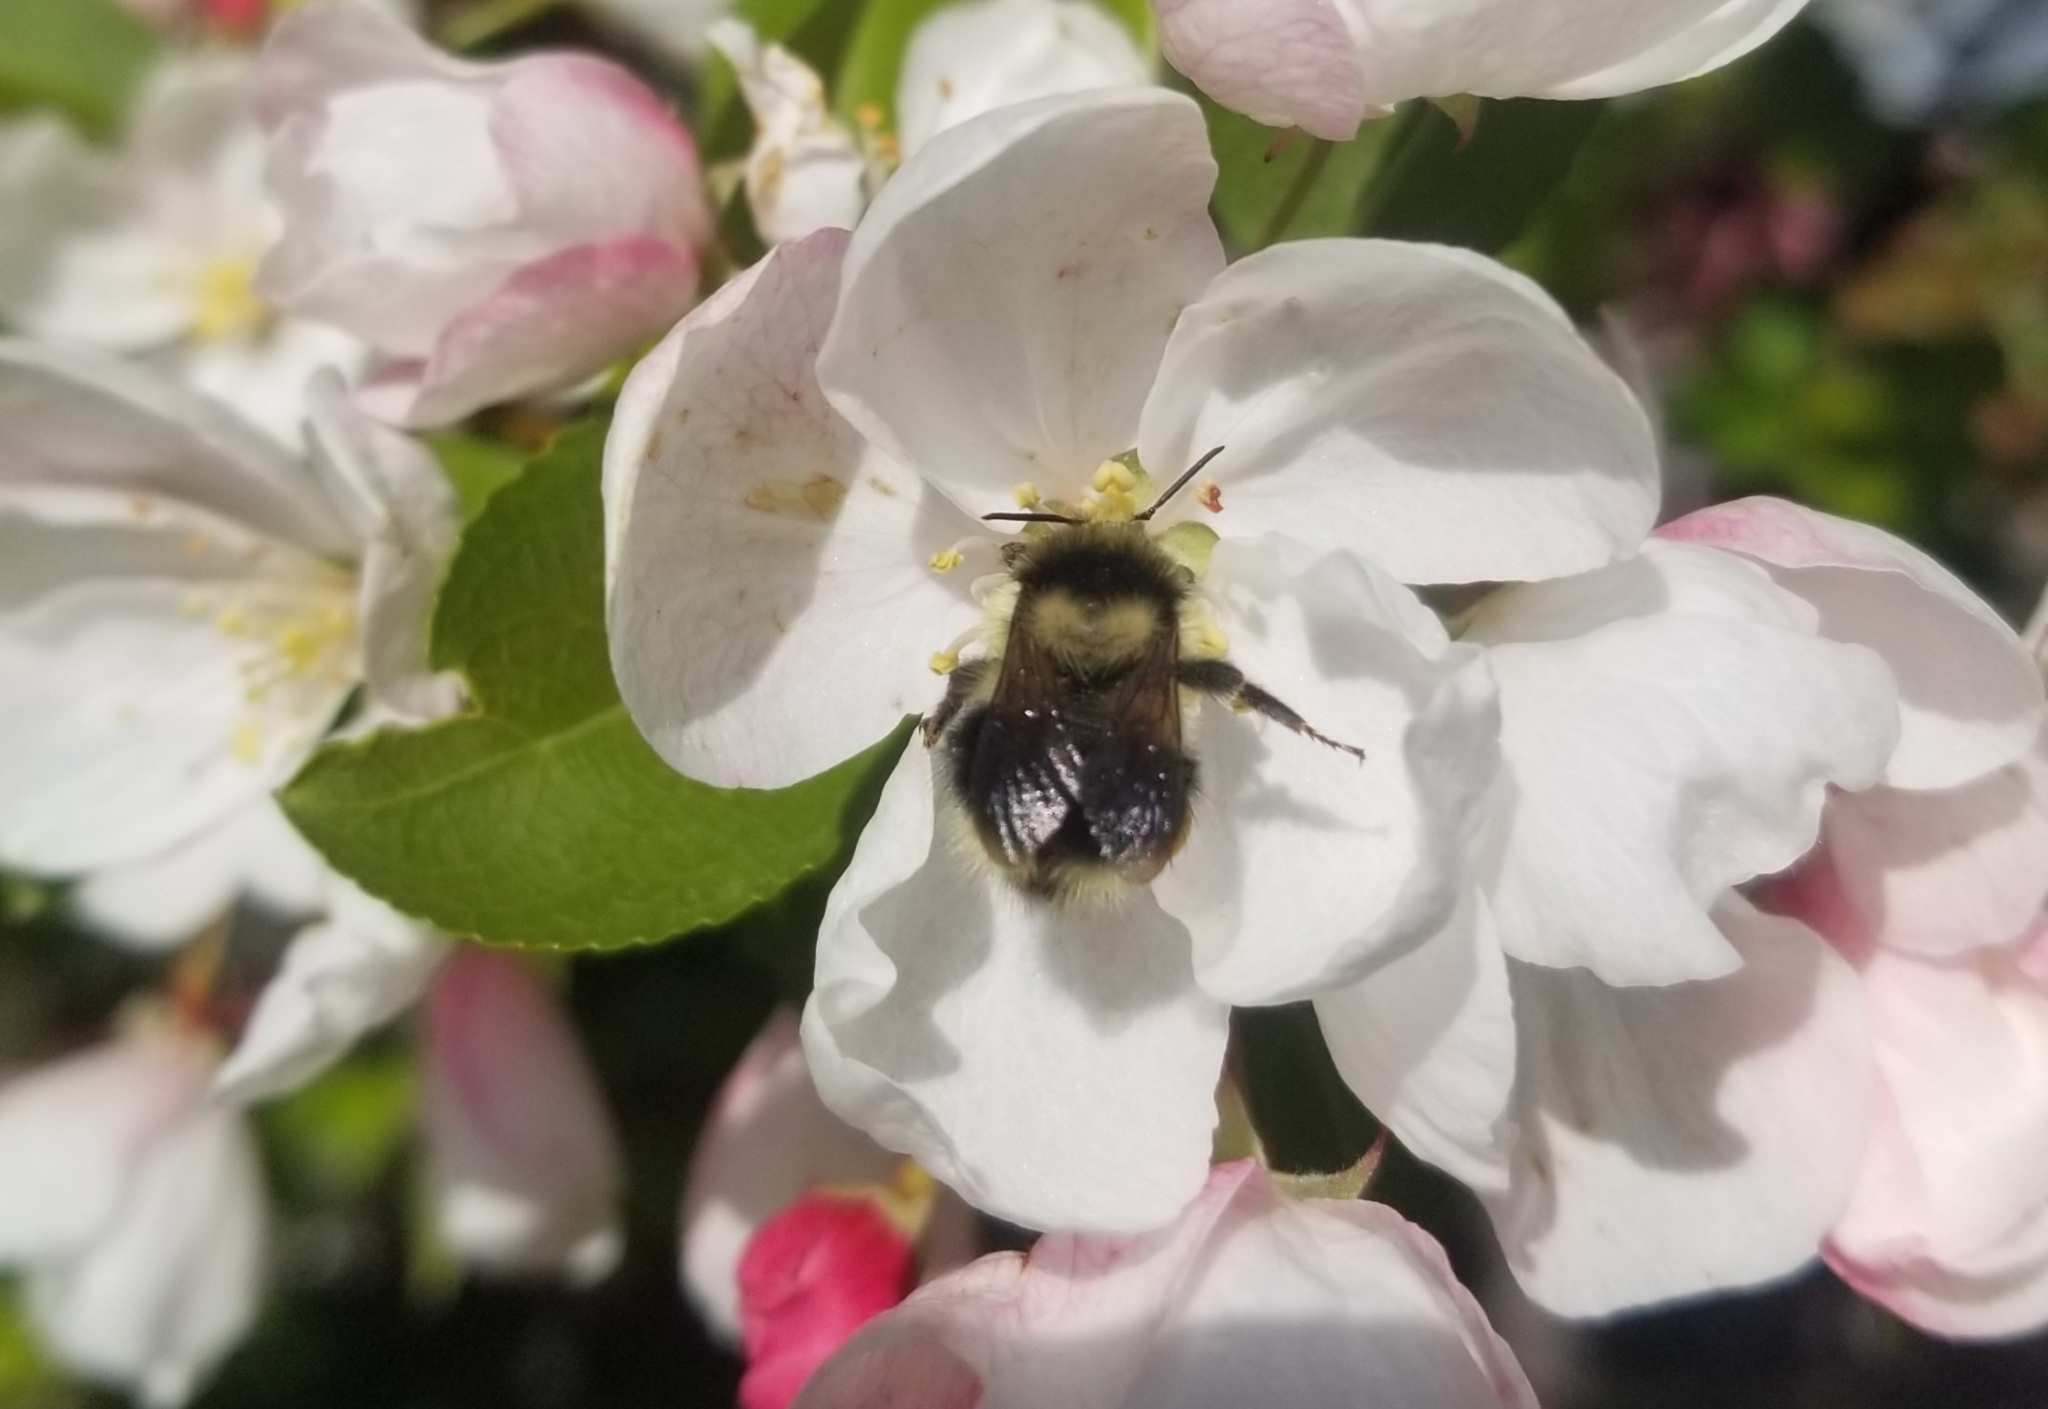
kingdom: Animalia
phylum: Arthropoda
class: Insecta
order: Hymenoptera
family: Apidae
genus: Bombus
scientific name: Bombus melanopygus
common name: Black tail bumble bee
